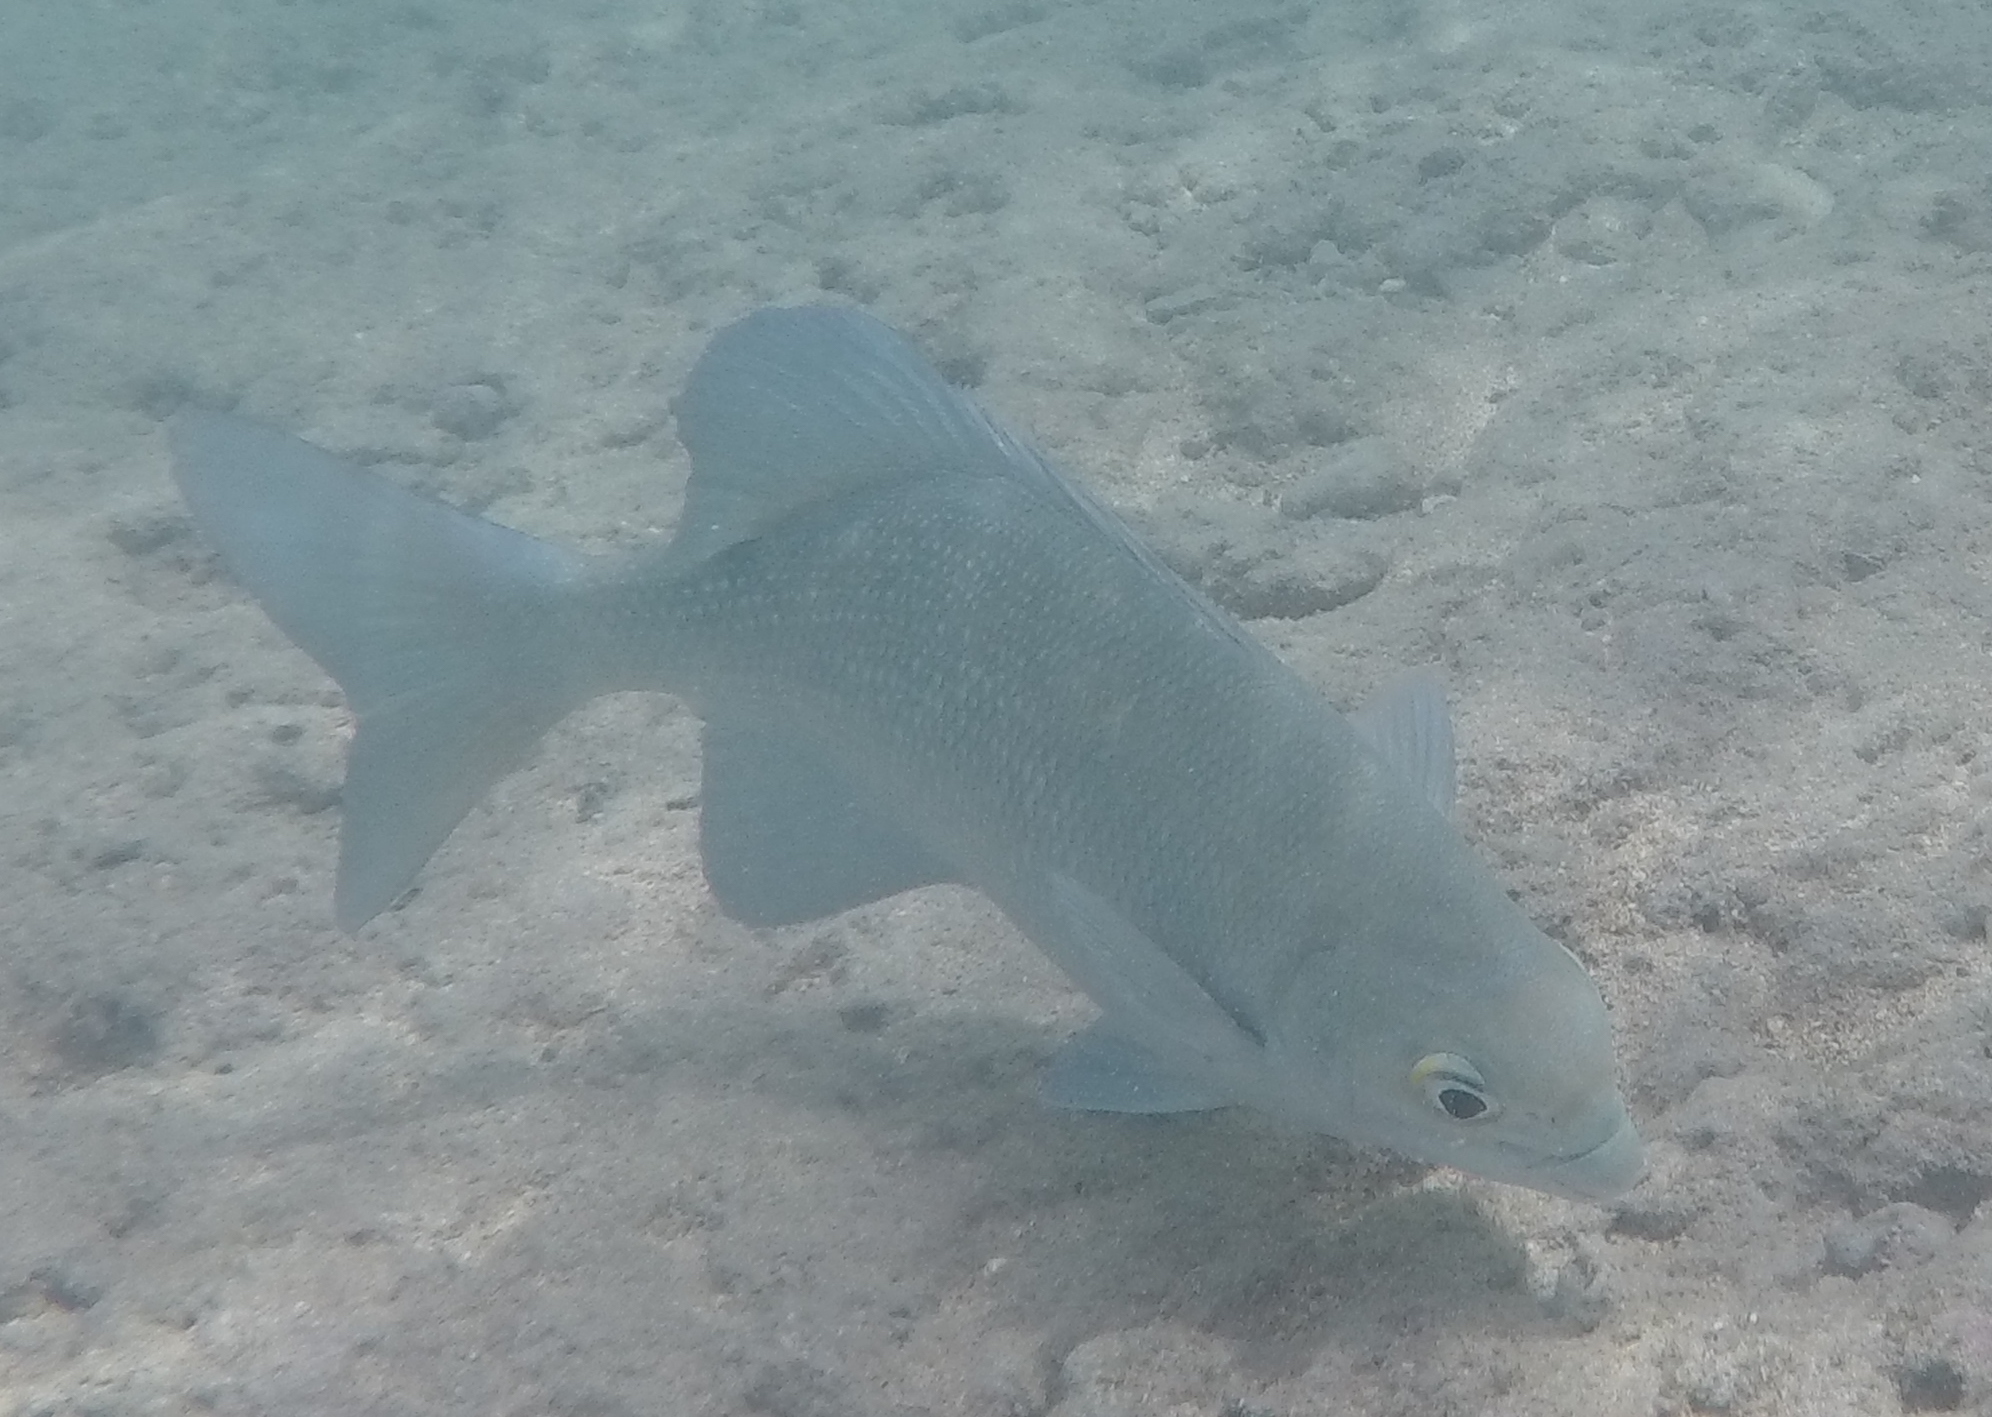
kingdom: Animalia
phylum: Chordata
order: Perciformes
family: Kyphosidae
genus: Kyphosus
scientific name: Kyphosus cinerascens
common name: Topsail drummer
